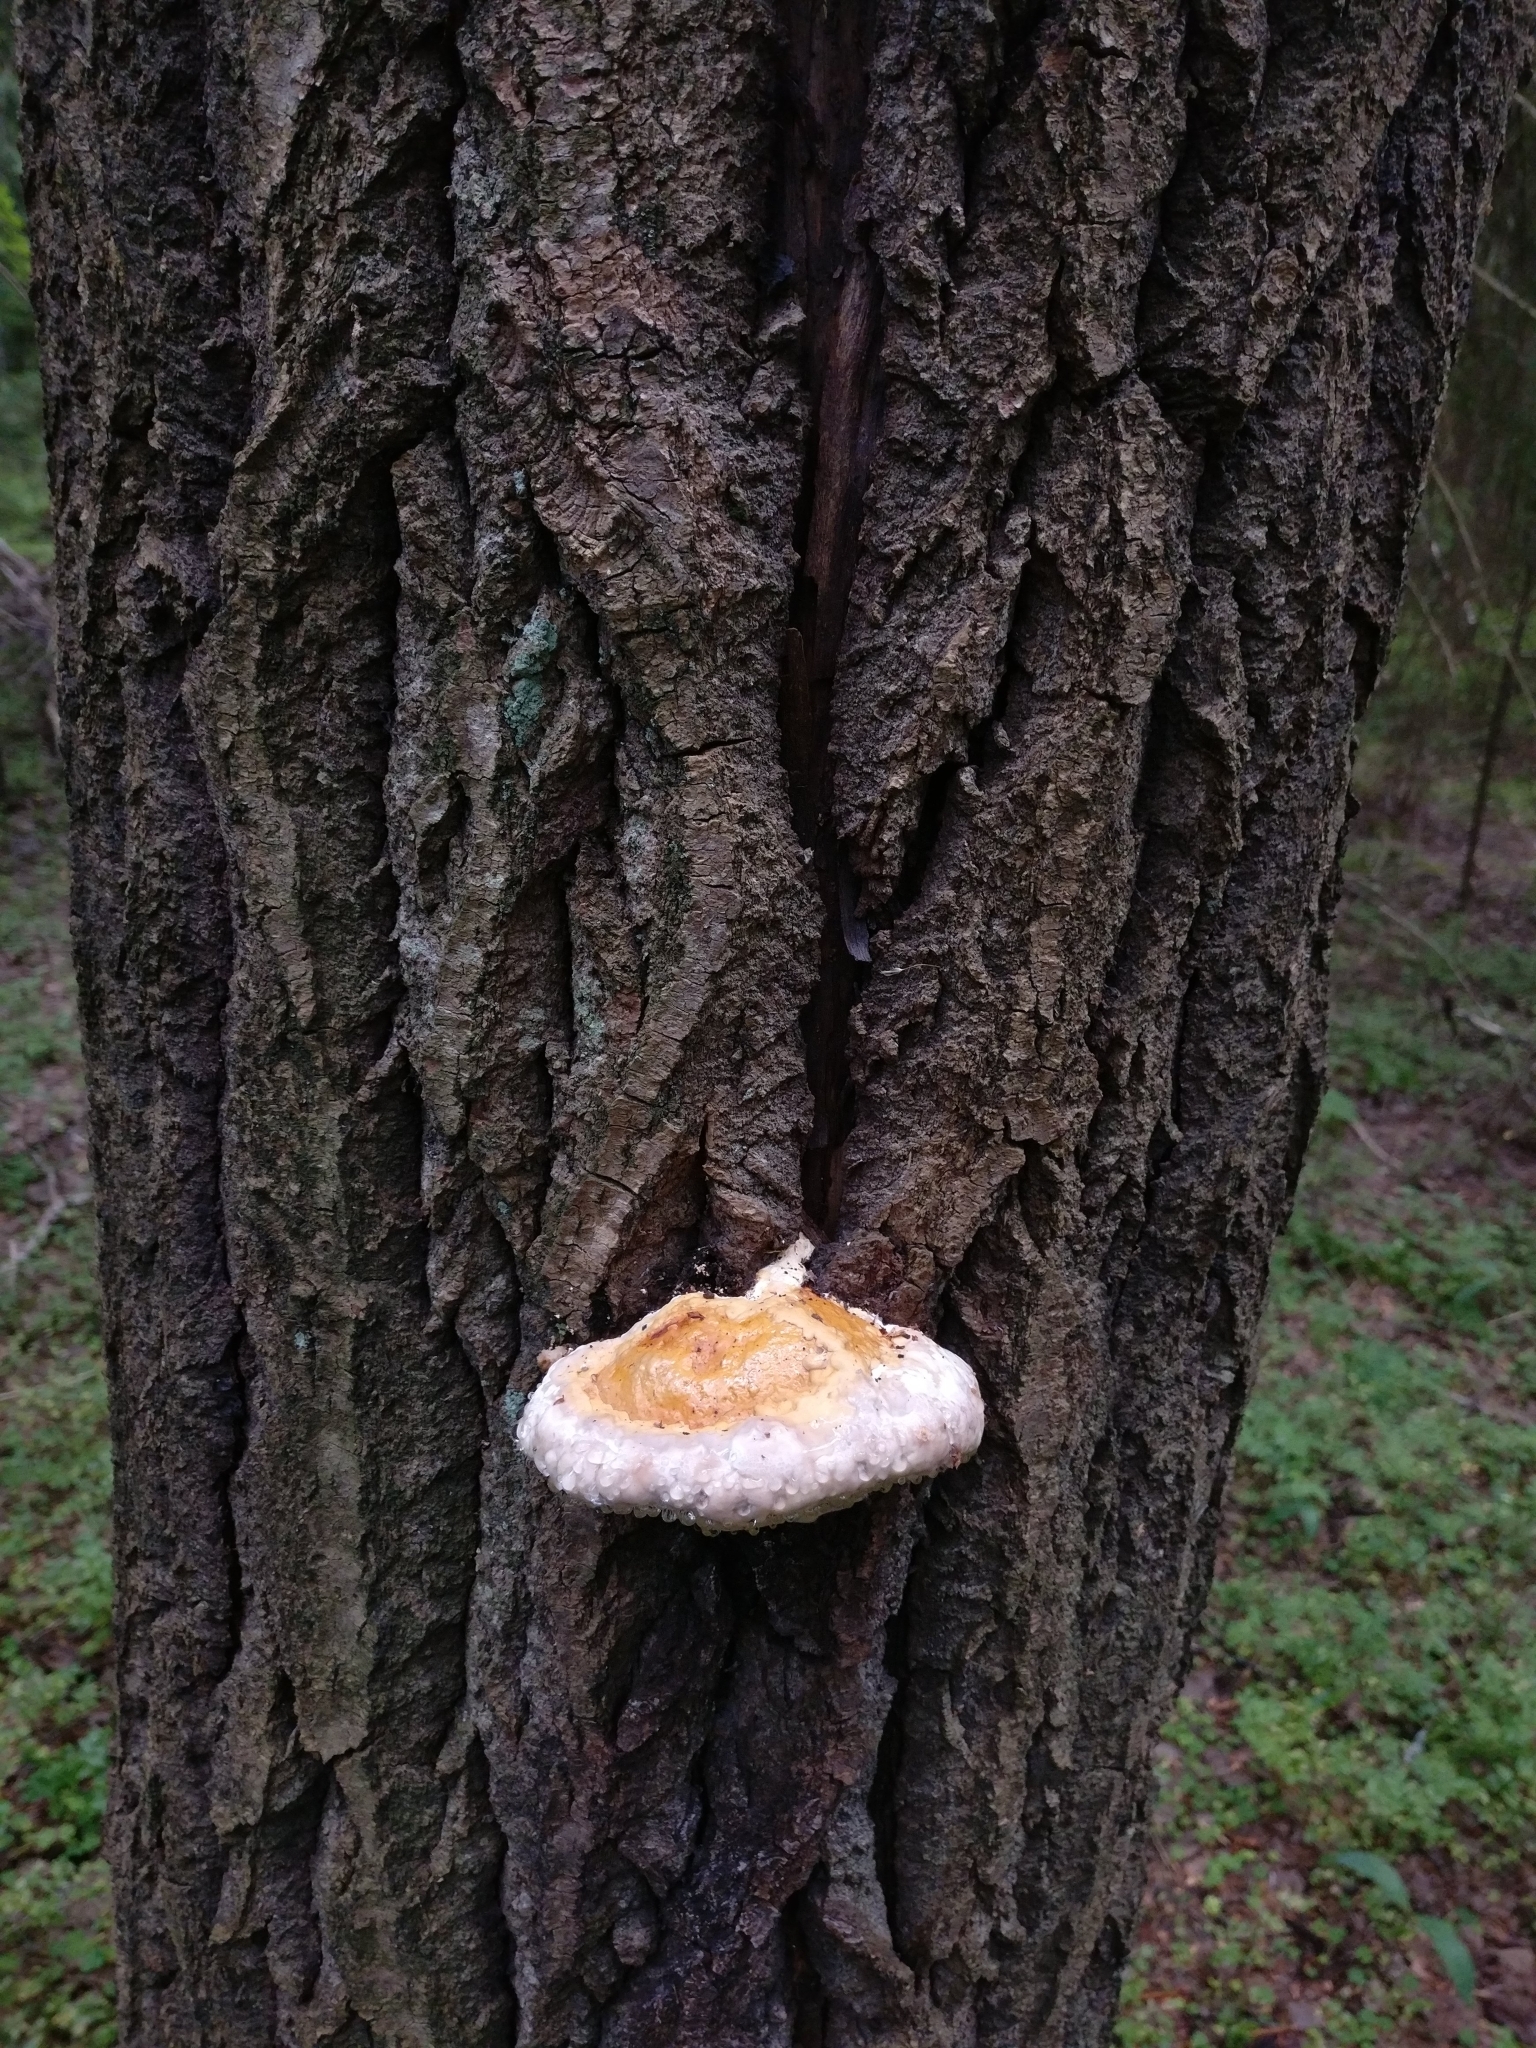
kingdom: Fungi
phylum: Basidiomycota
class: Agaricomycetes
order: Polyporales
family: Fomitopsidaceae
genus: Fomitopsis
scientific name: Fomitopsis pinicola
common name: Red-belted bracket
